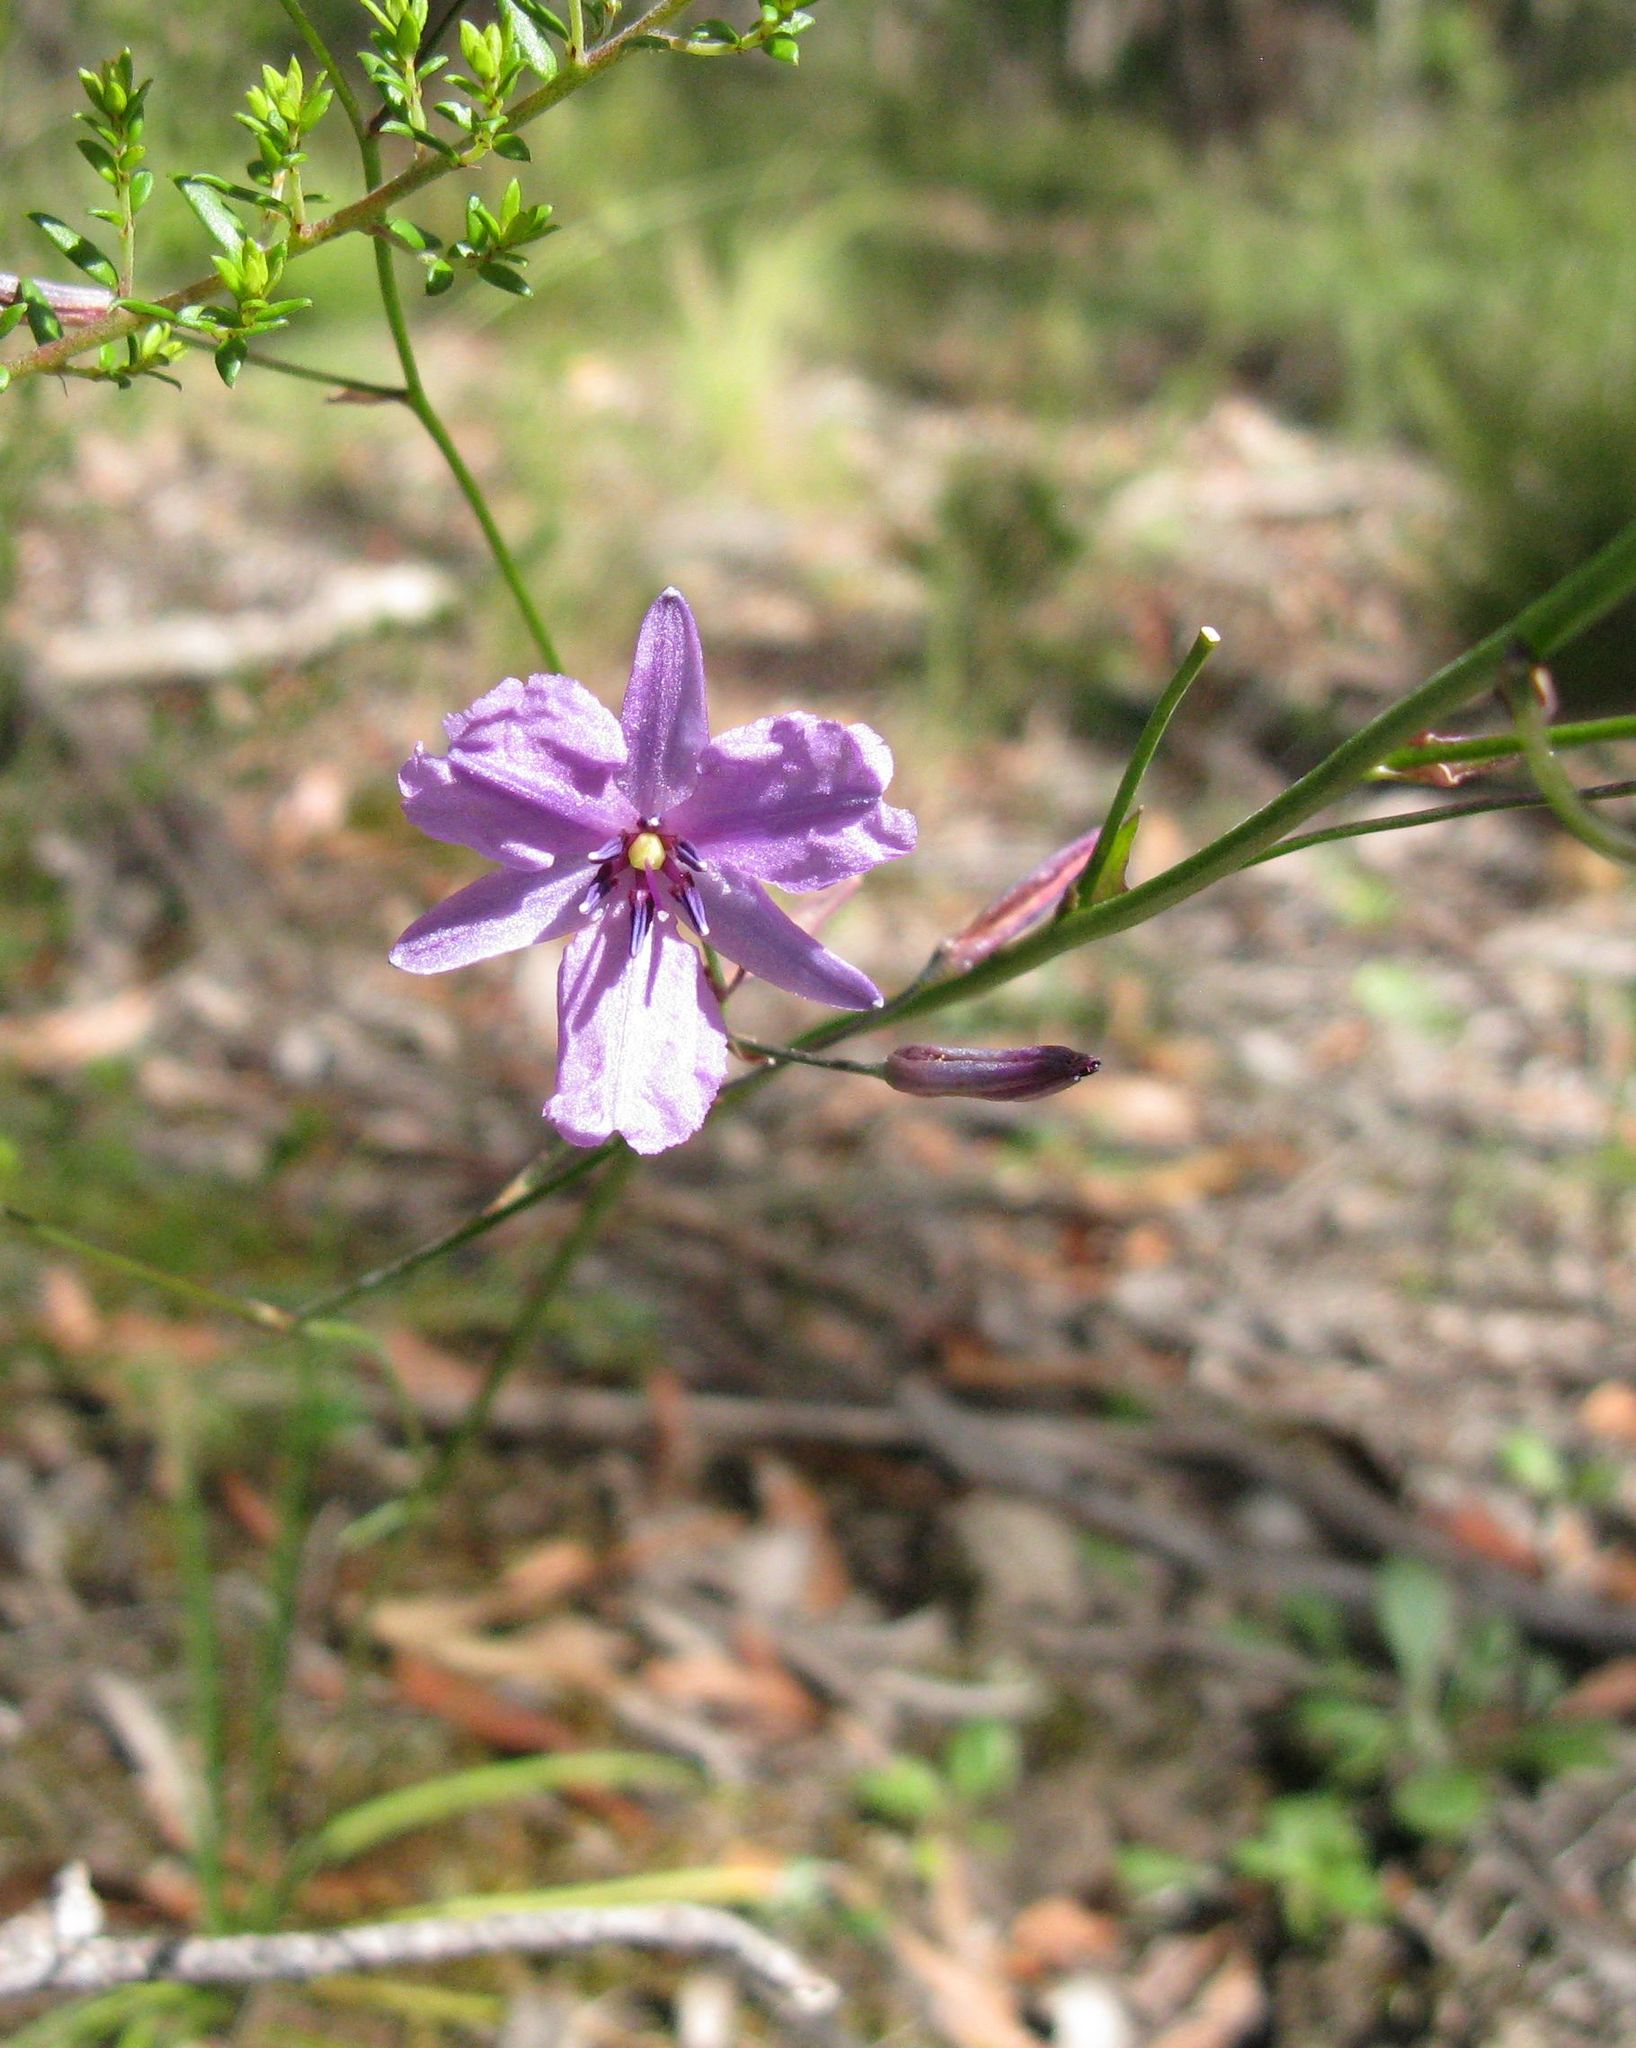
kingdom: Plantae
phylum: Tracheophyta
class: Liliopsida
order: Asparagales
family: Asparagaceae
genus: Arthropodium
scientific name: Arthropodium strictum
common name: Chocolate-lily
